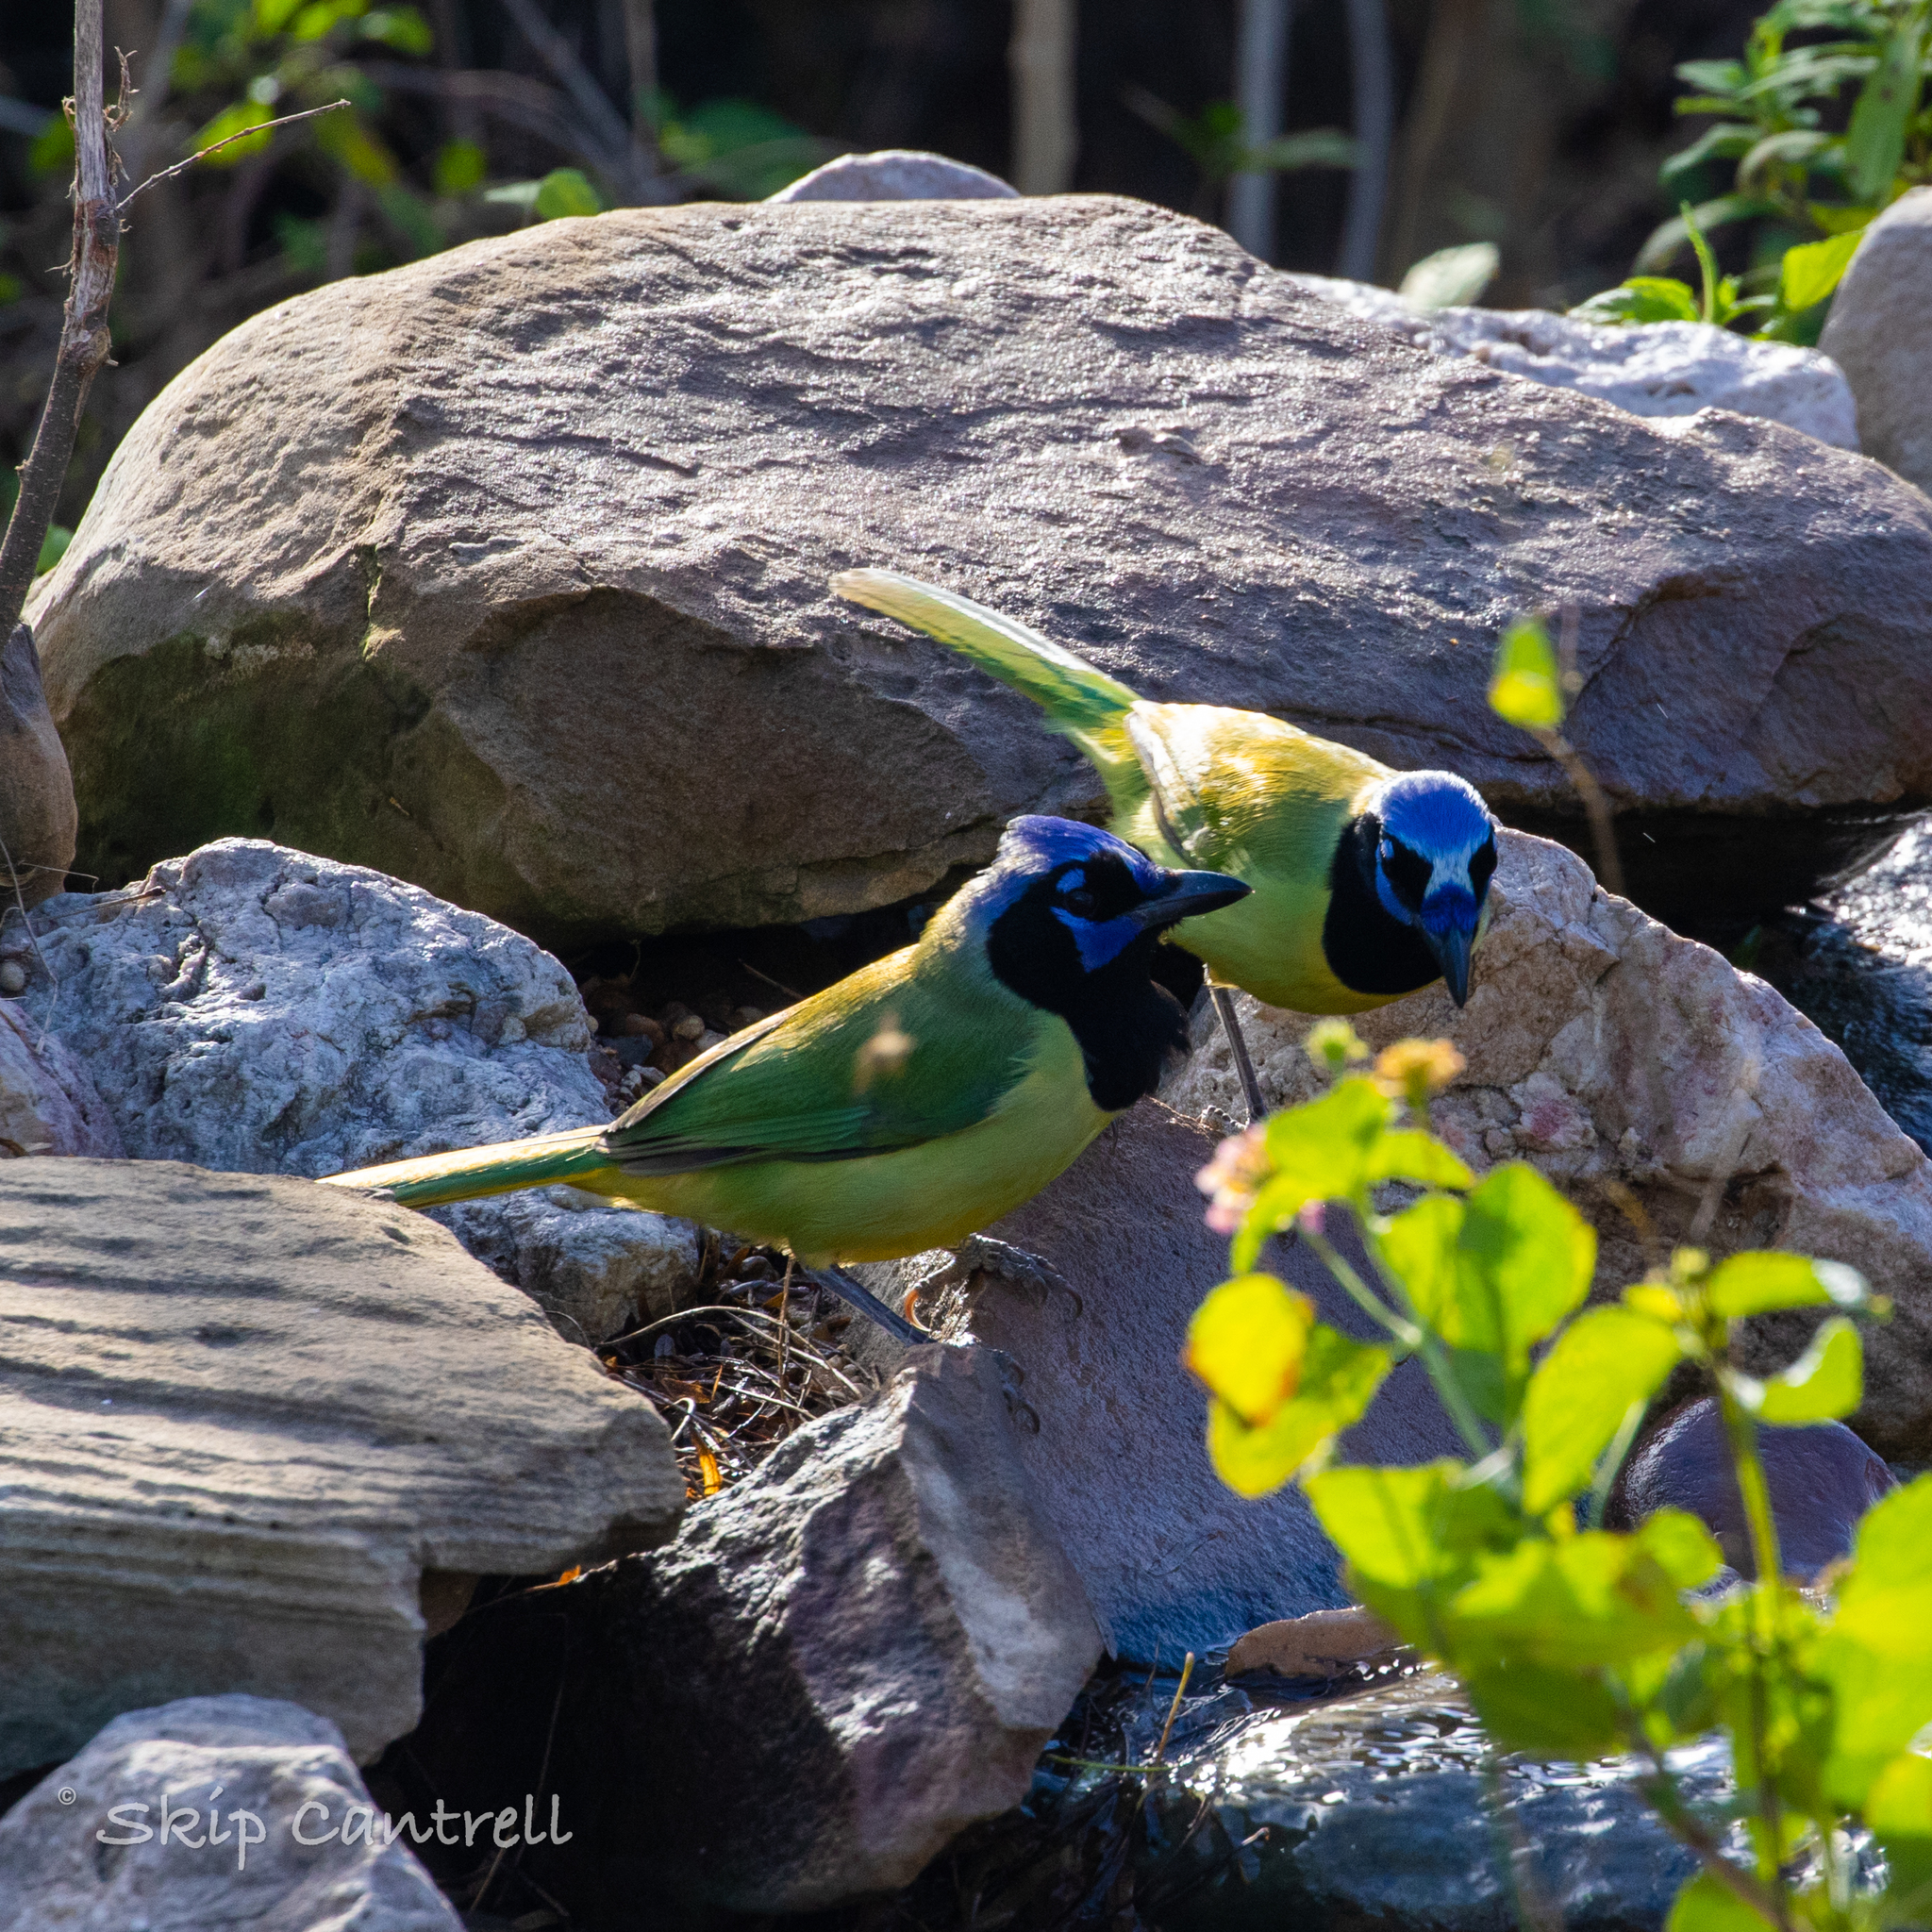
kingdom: Animalia
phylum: Chordata
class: Aves
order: Passeriformes
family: Corvidae
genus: Cyanocorax
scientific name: Cyanocorax yncas
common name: Green jay
